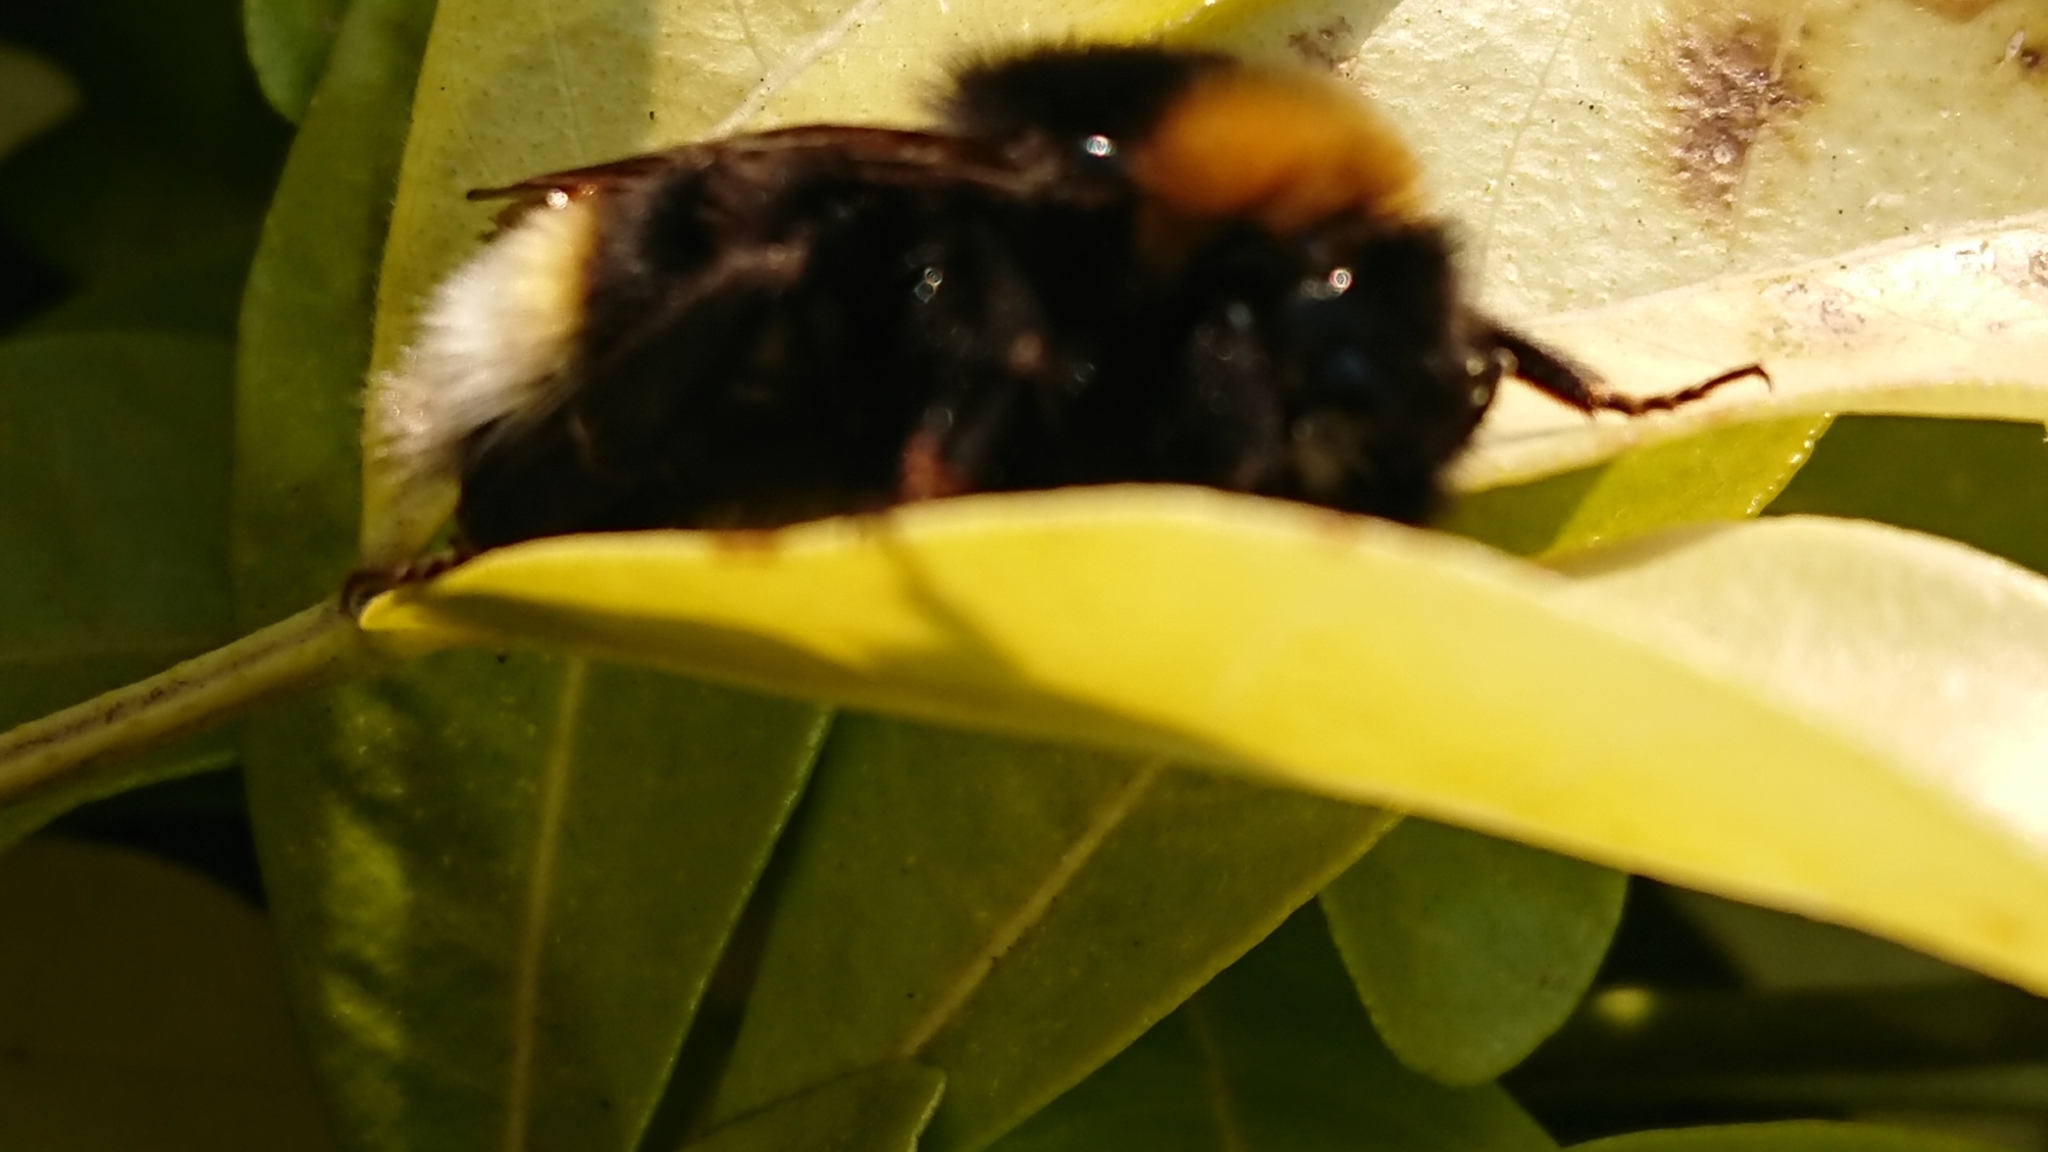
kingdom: Animalia
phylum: Arthropoda
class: Insecta
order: Hymenoptera
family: Apidae
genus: Bombus
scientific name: Bombus vestalis
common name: Vestal cuckoo bee
